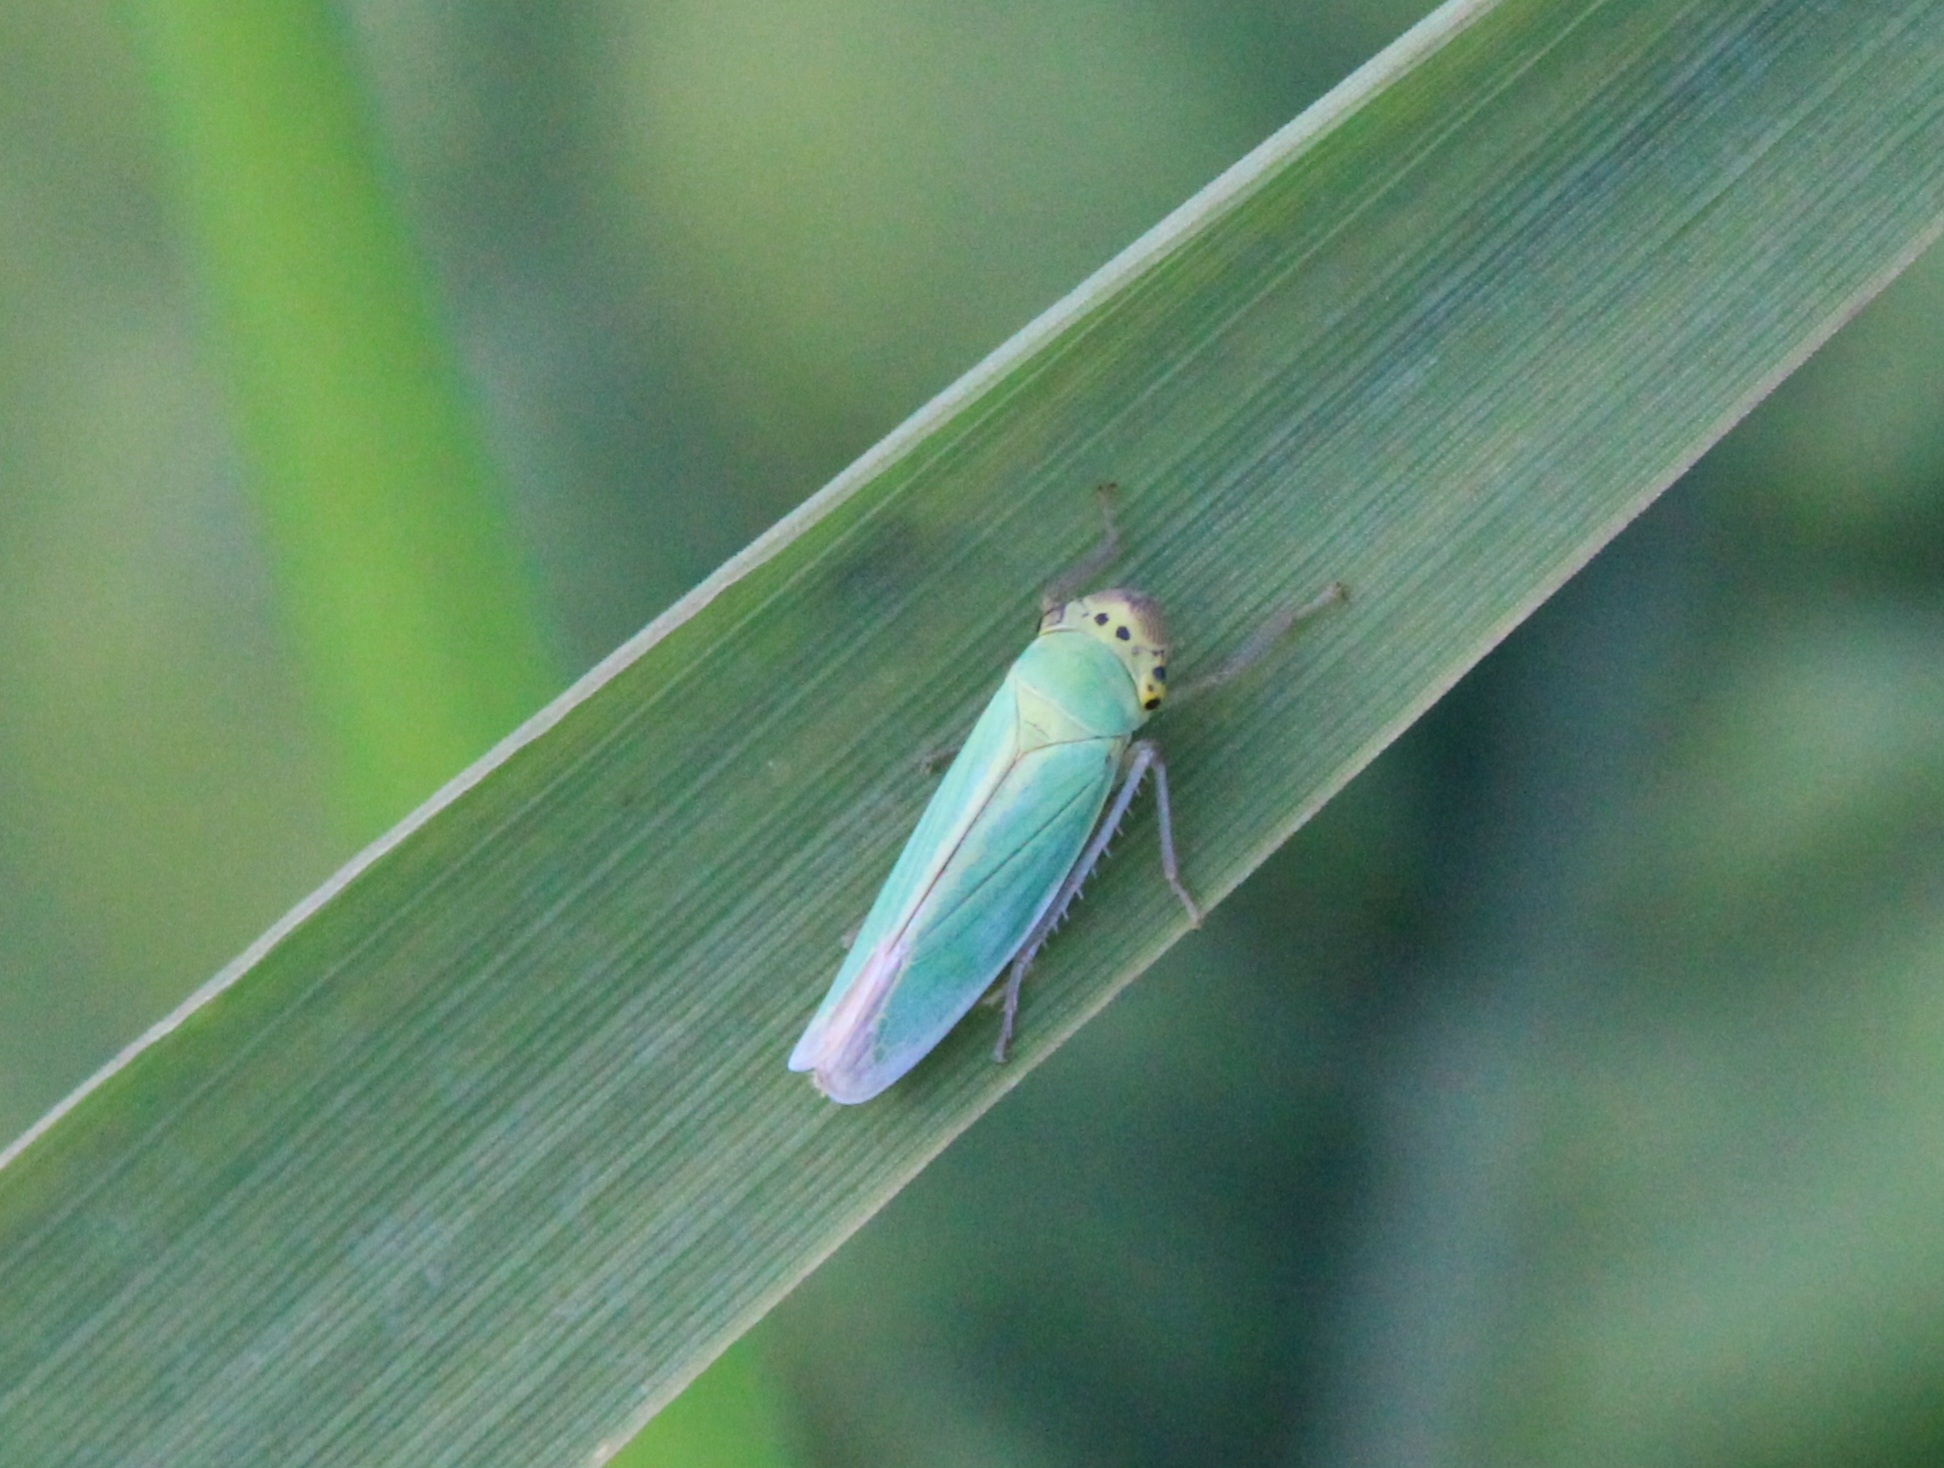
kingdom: Animalia
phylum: Arthropoda
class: Insecta
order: Hemiptera
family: Cicadellidae
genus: Cicadella
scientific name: Cicadella viridis
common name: Leafhopper
